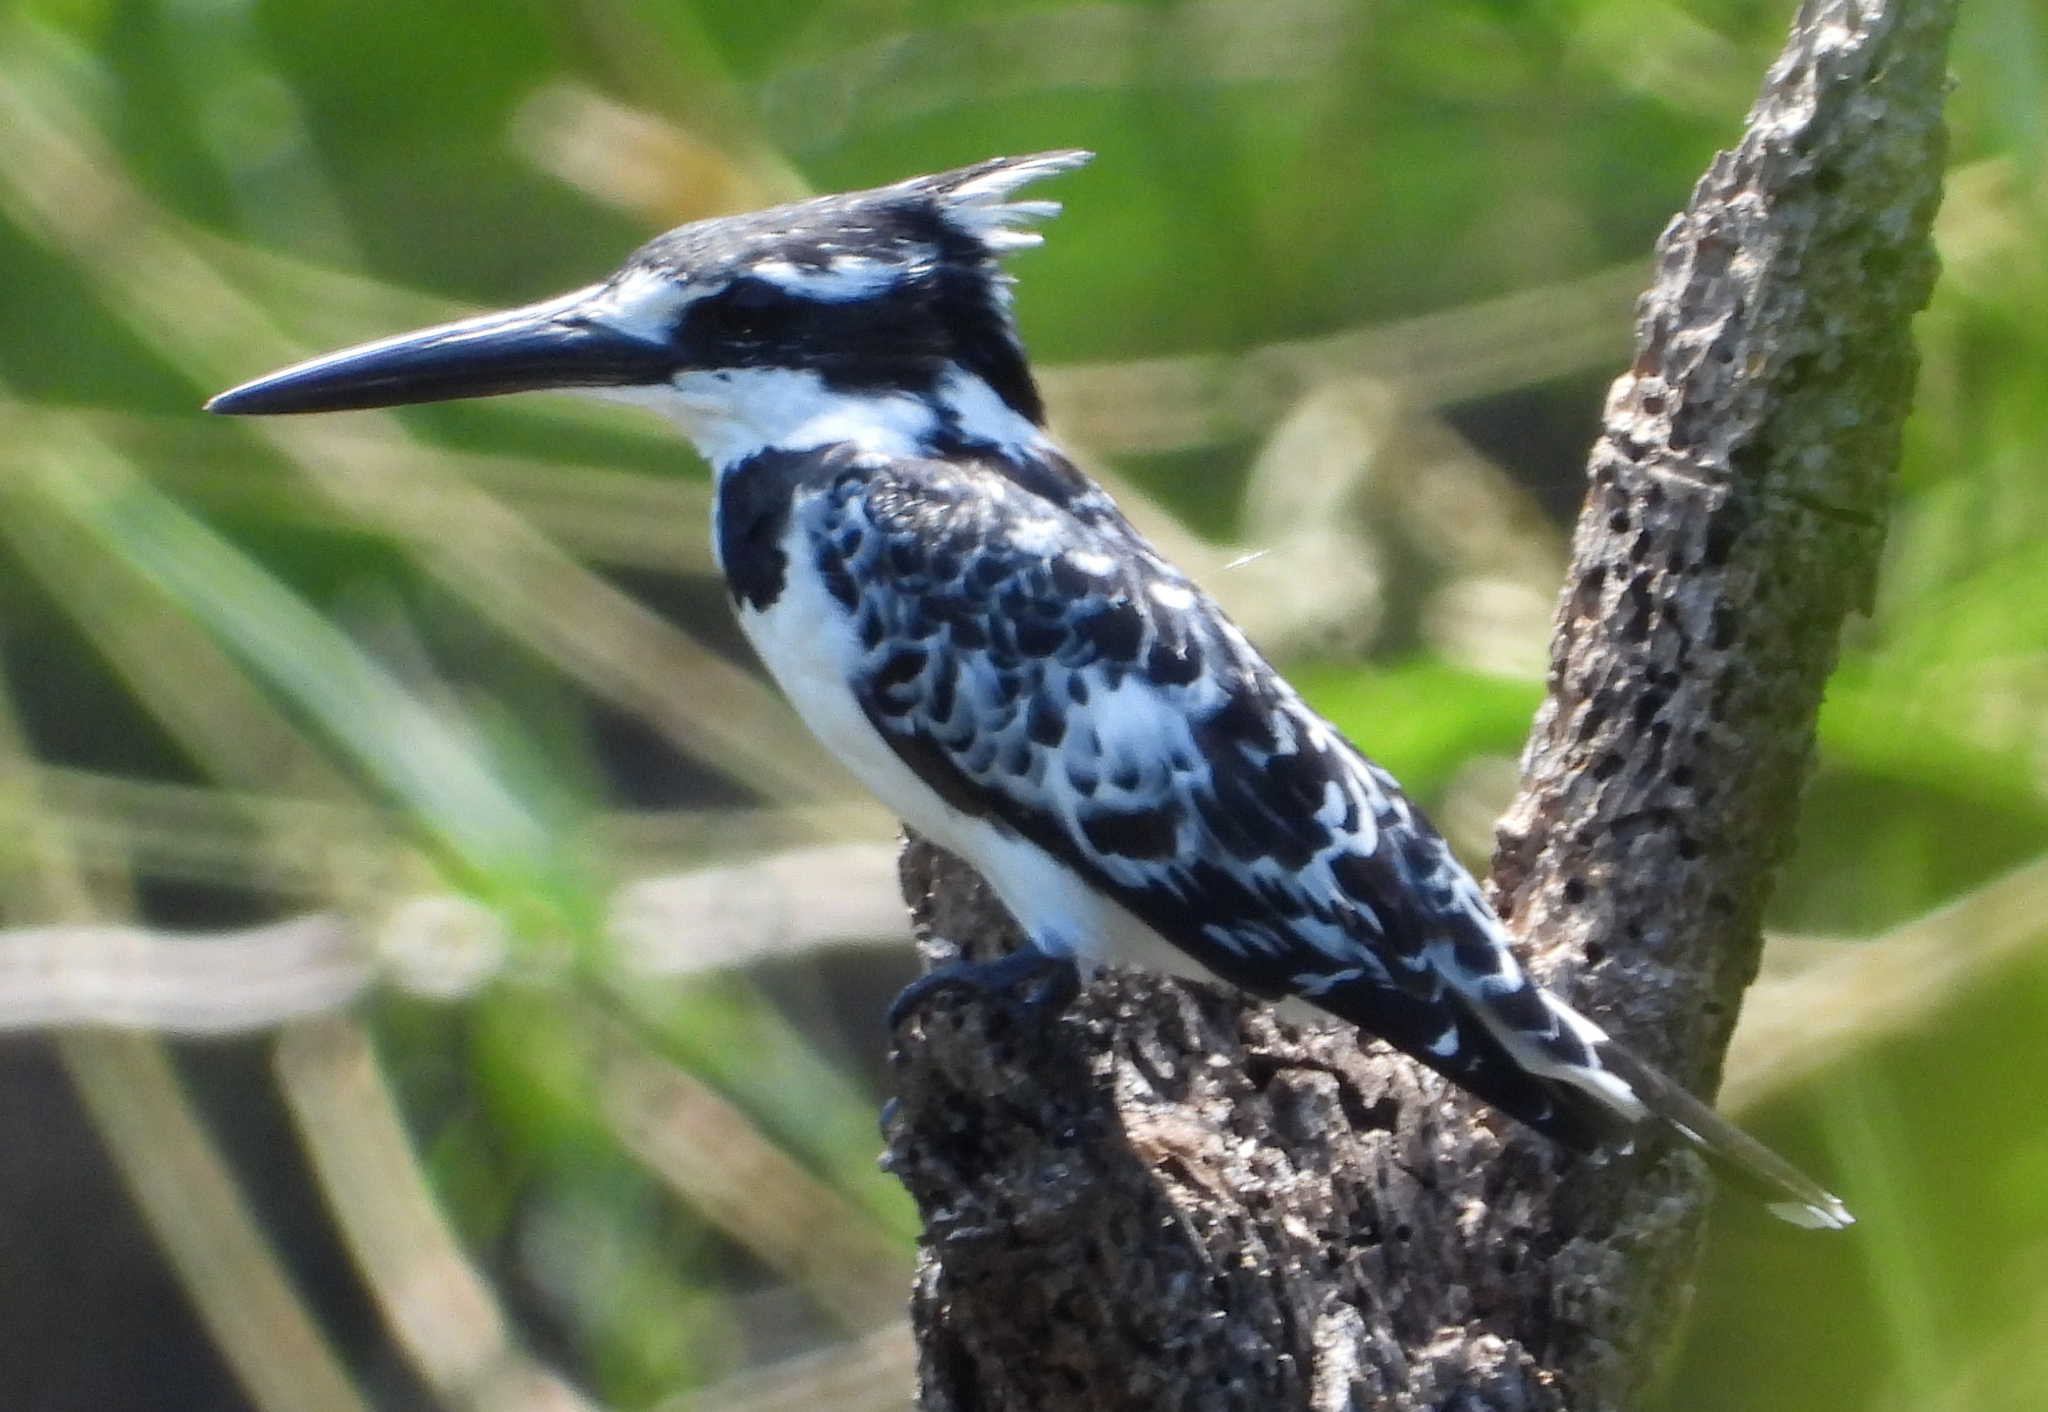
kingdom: Animalia
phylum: Chordata
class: Aves
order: Coraciiformes
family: Alcedinidae
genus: Ceryle
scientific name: Ceryle rudis
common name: Pied kingfisher
